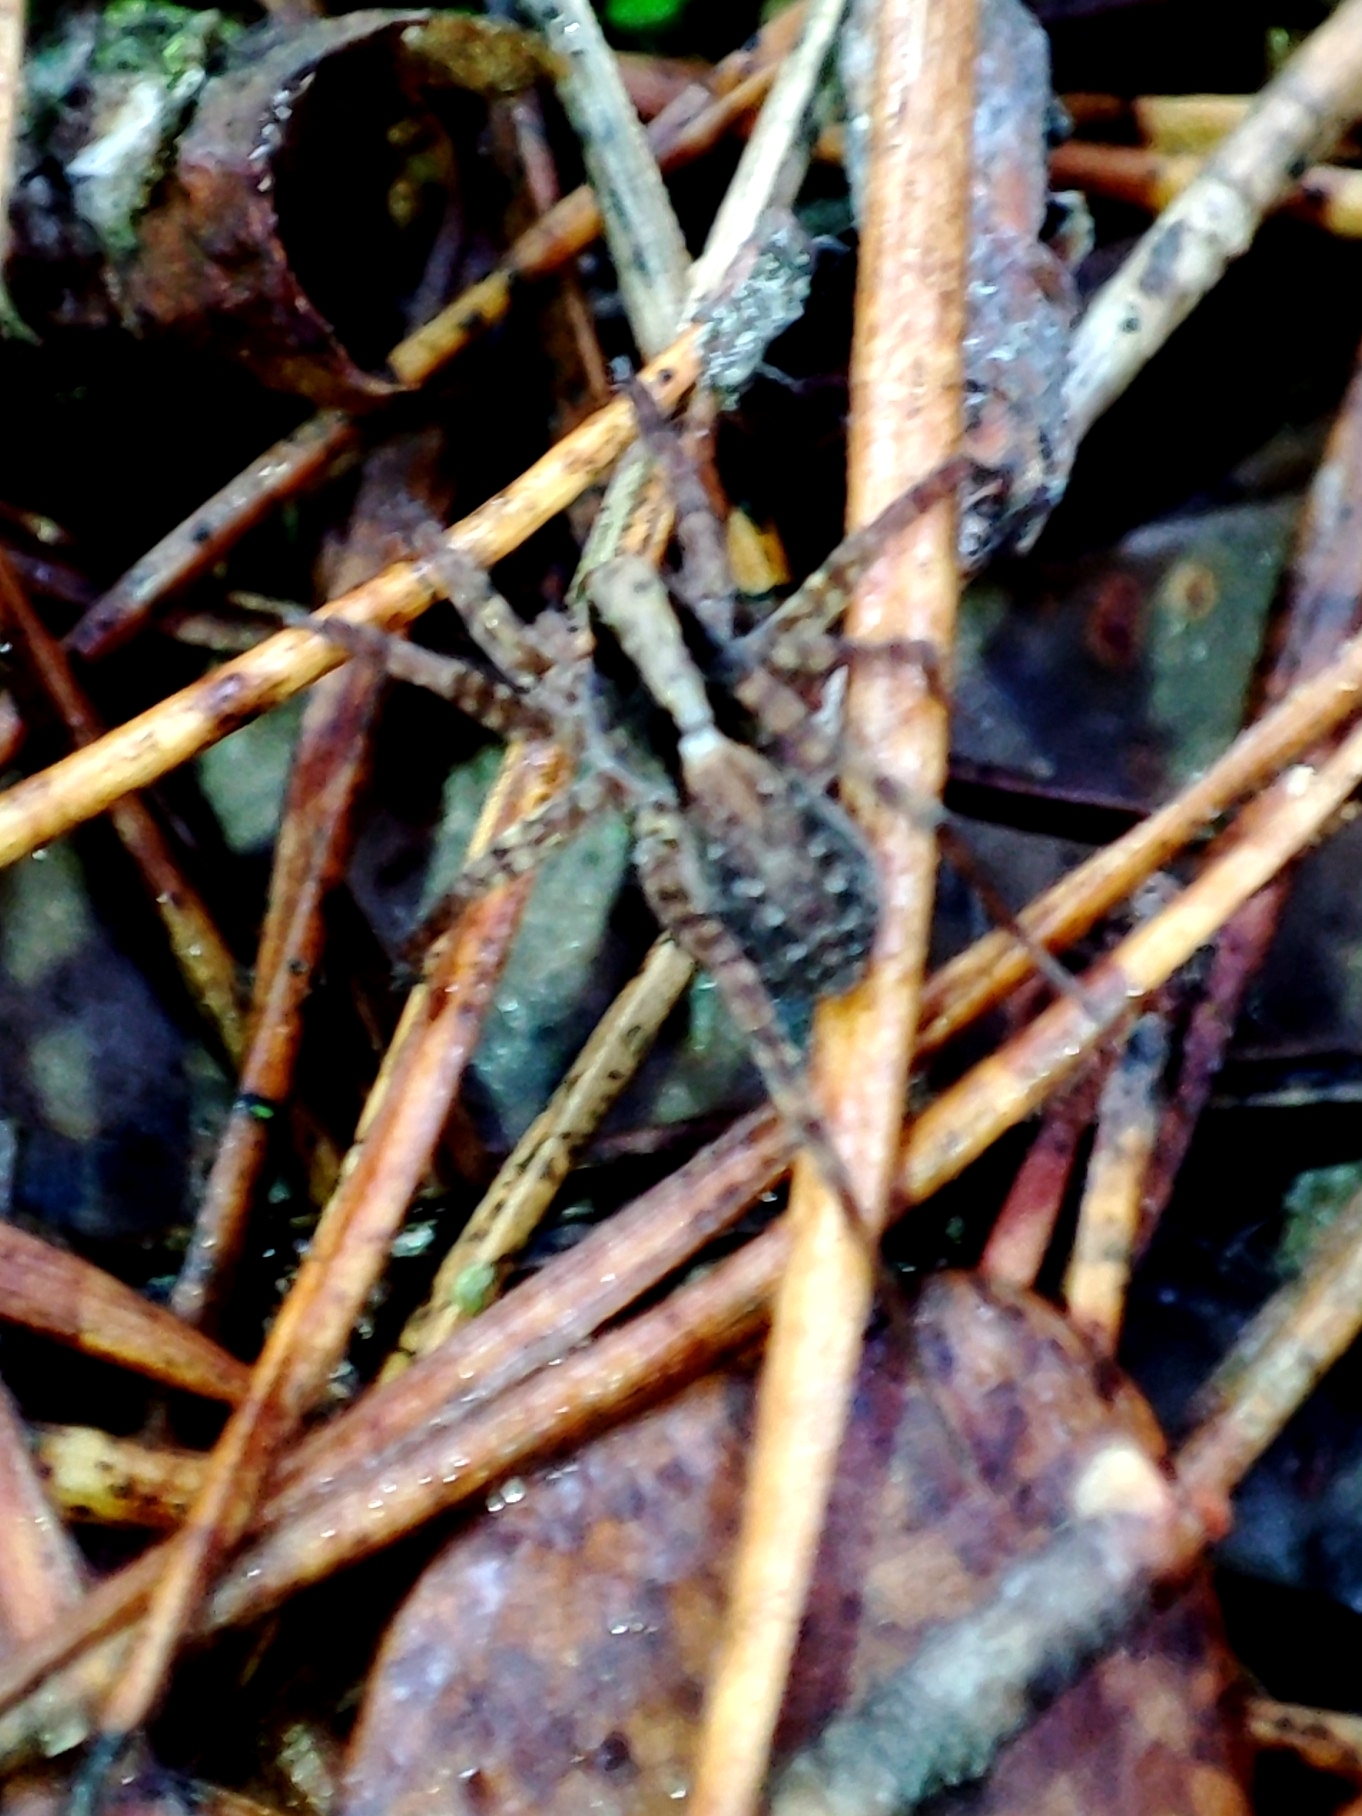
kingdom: Animalia
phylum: Arthropoda
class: Arachnida
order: Araneae
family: Lycosidae
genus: Pardosa
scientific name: Pardosa
